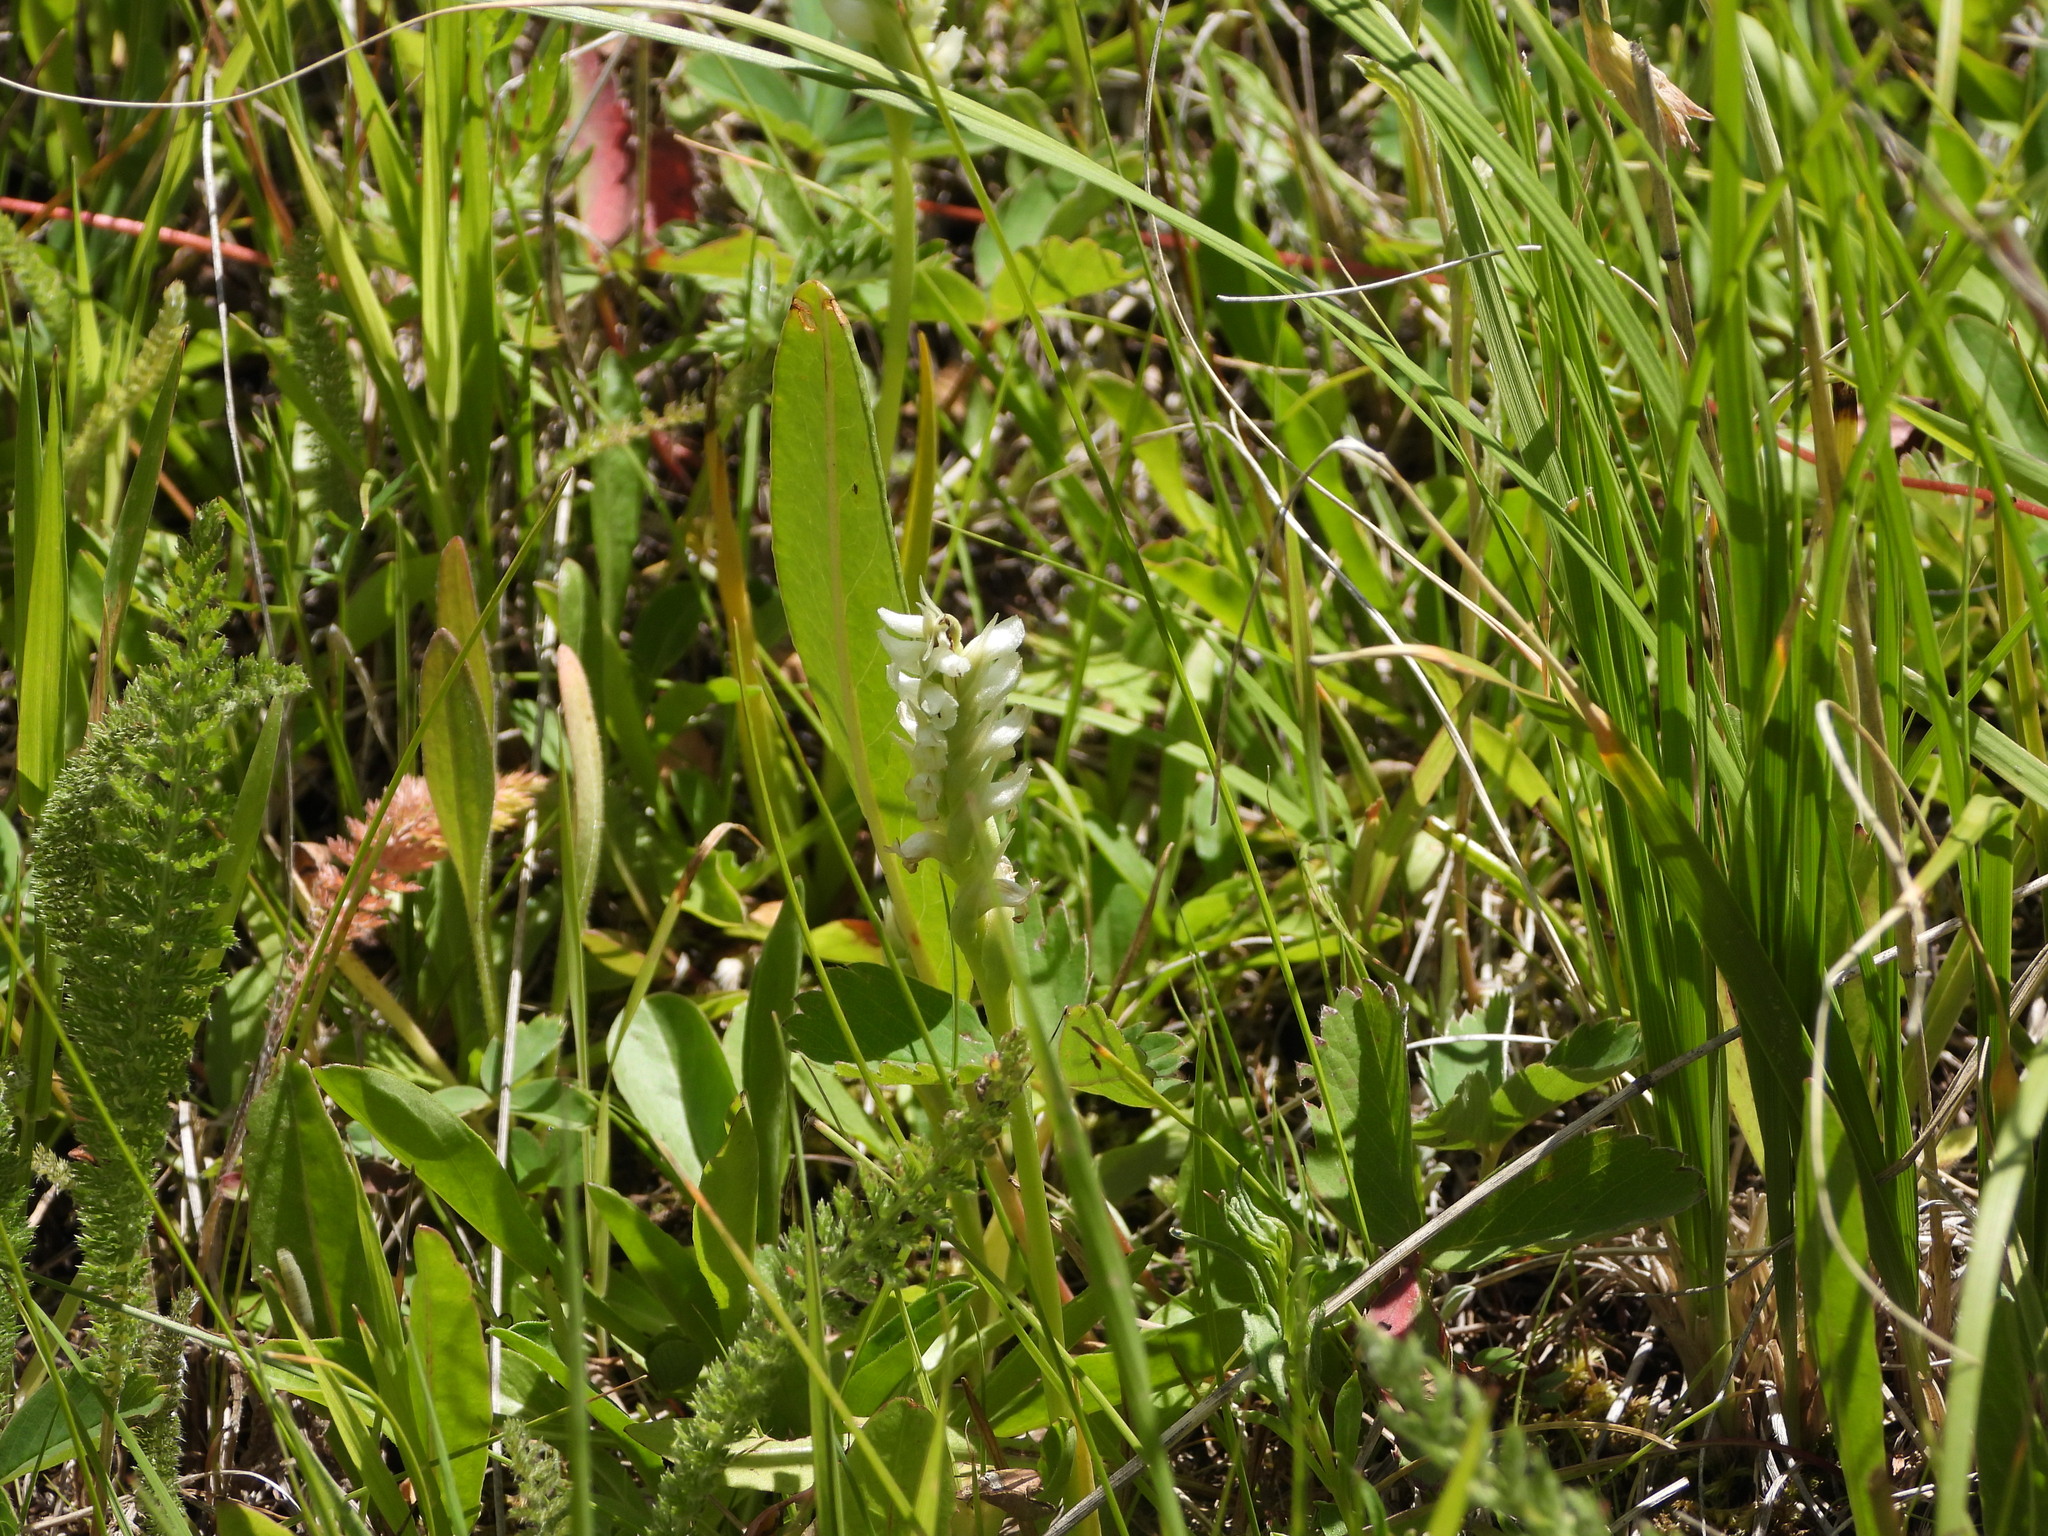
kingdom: Plantae
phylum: Tracheophyta
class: Liliopsida
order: Asparagales
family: Orchidaceae
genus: Spiranthes
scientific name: Spiranthes romanzoffiana
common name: Irish lady's-tresses
